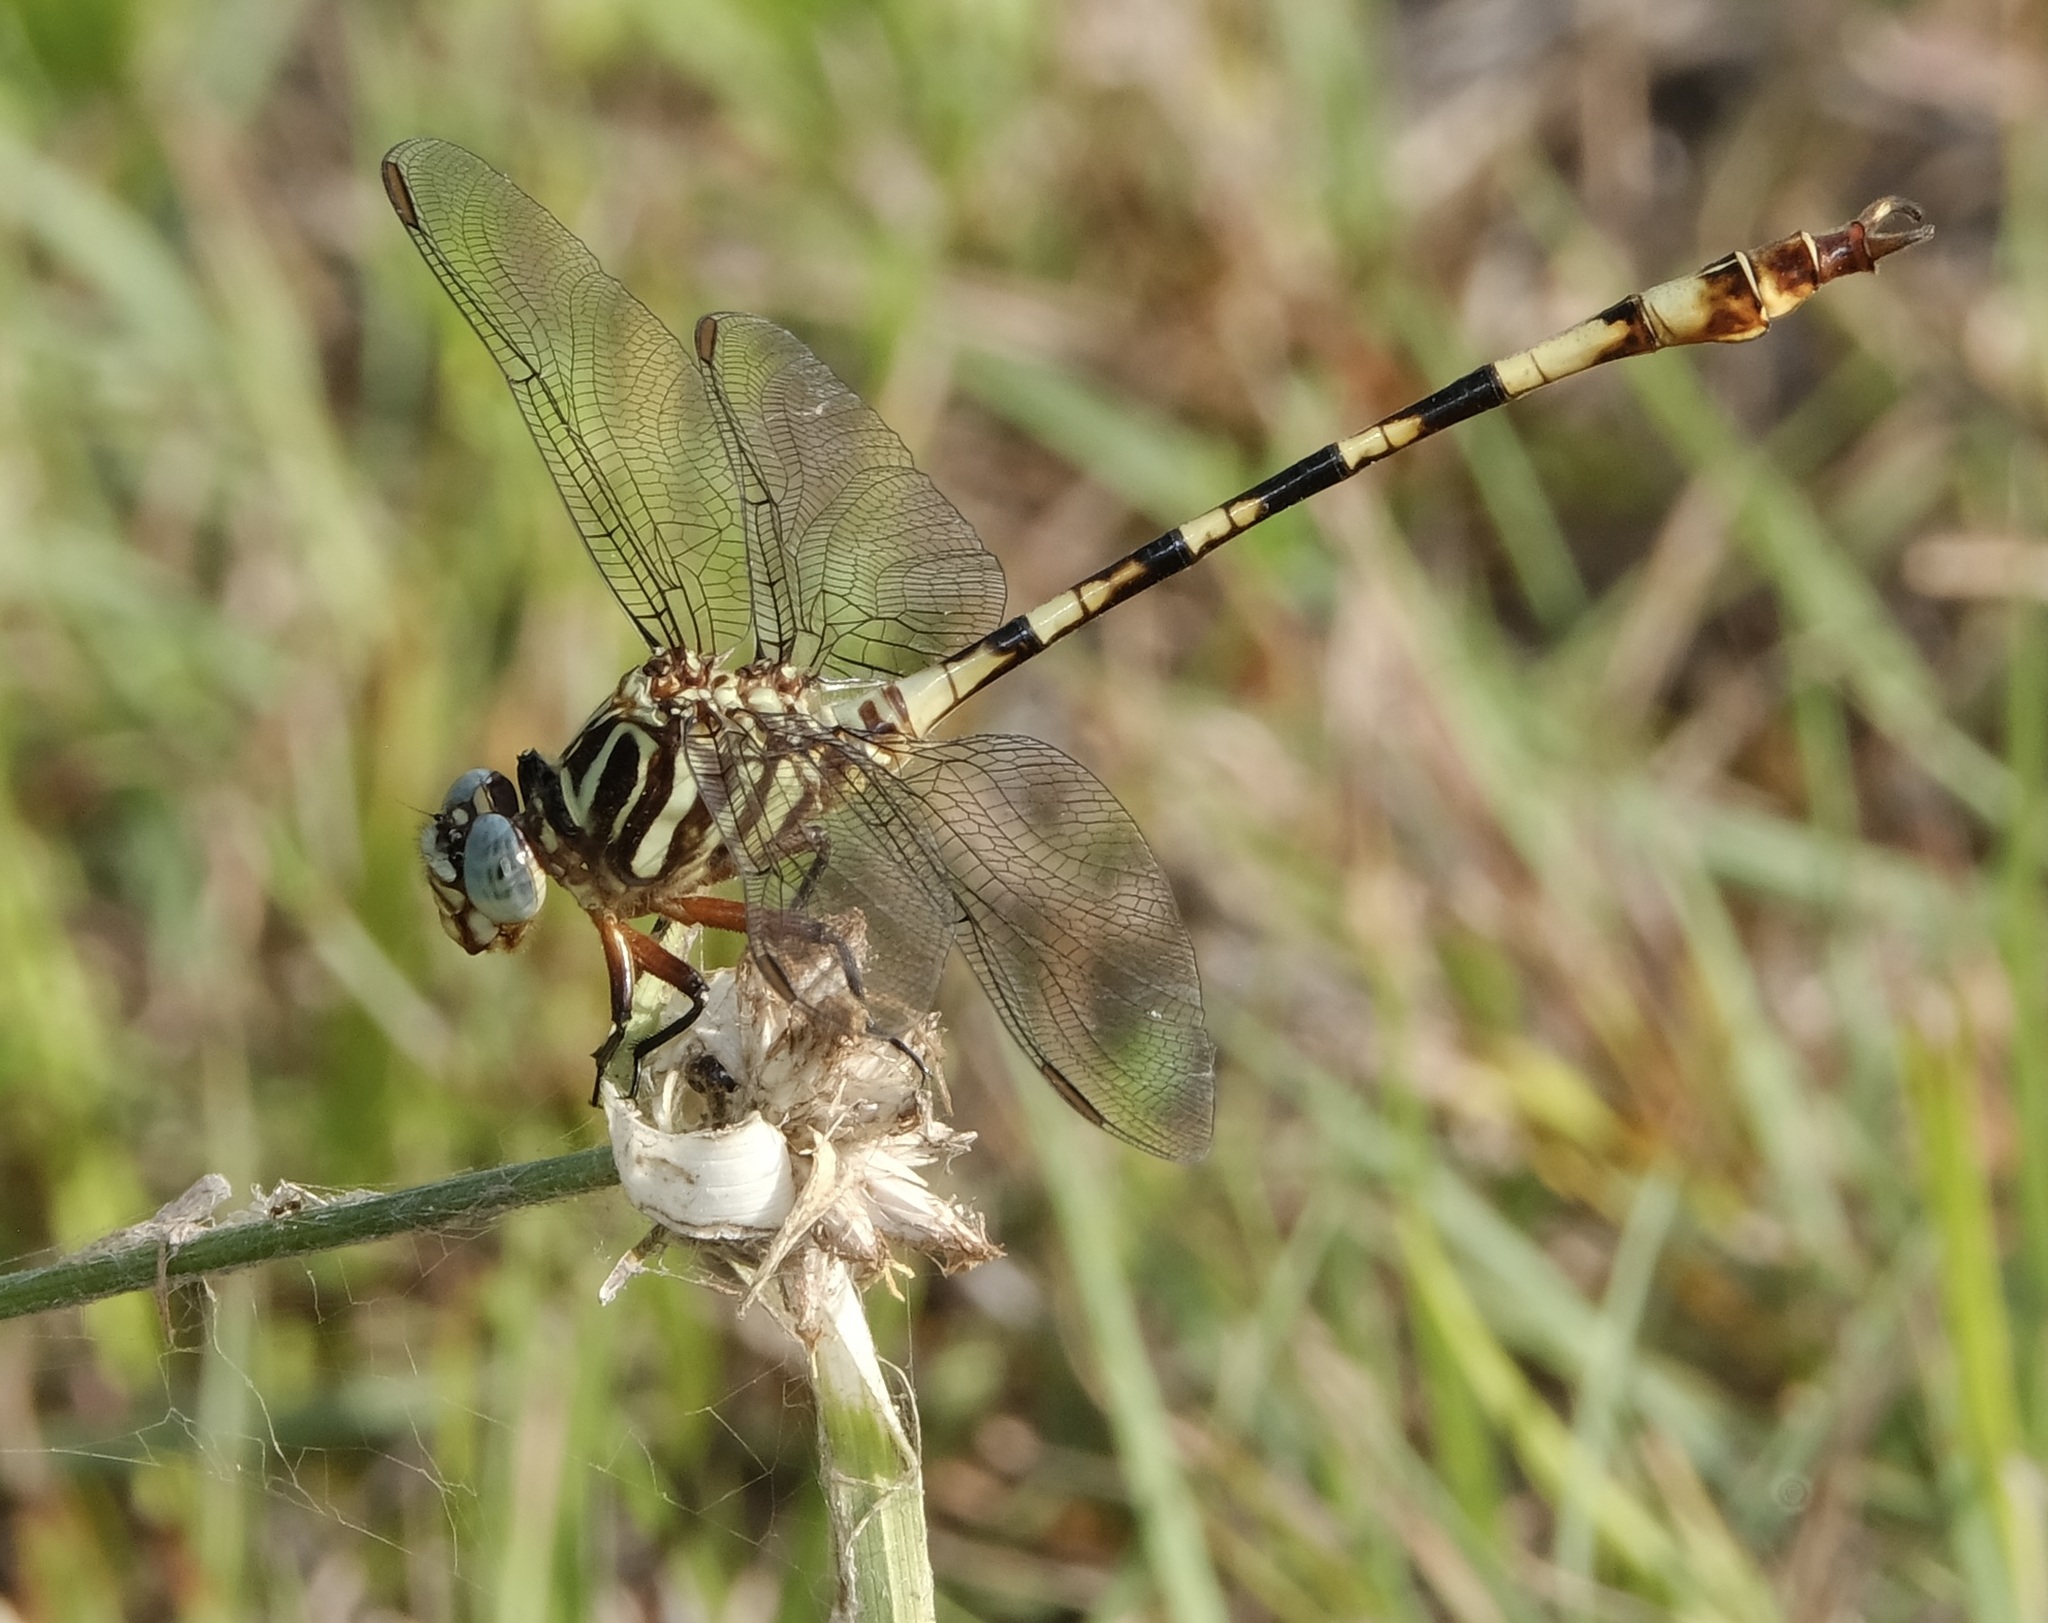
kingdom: Animalia
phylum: Arthropoda
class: Insecta
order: Odonata
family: Gomphidae
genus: Aphylla
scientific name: Aphylla angustifolia
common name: Broad-striped forceptail
